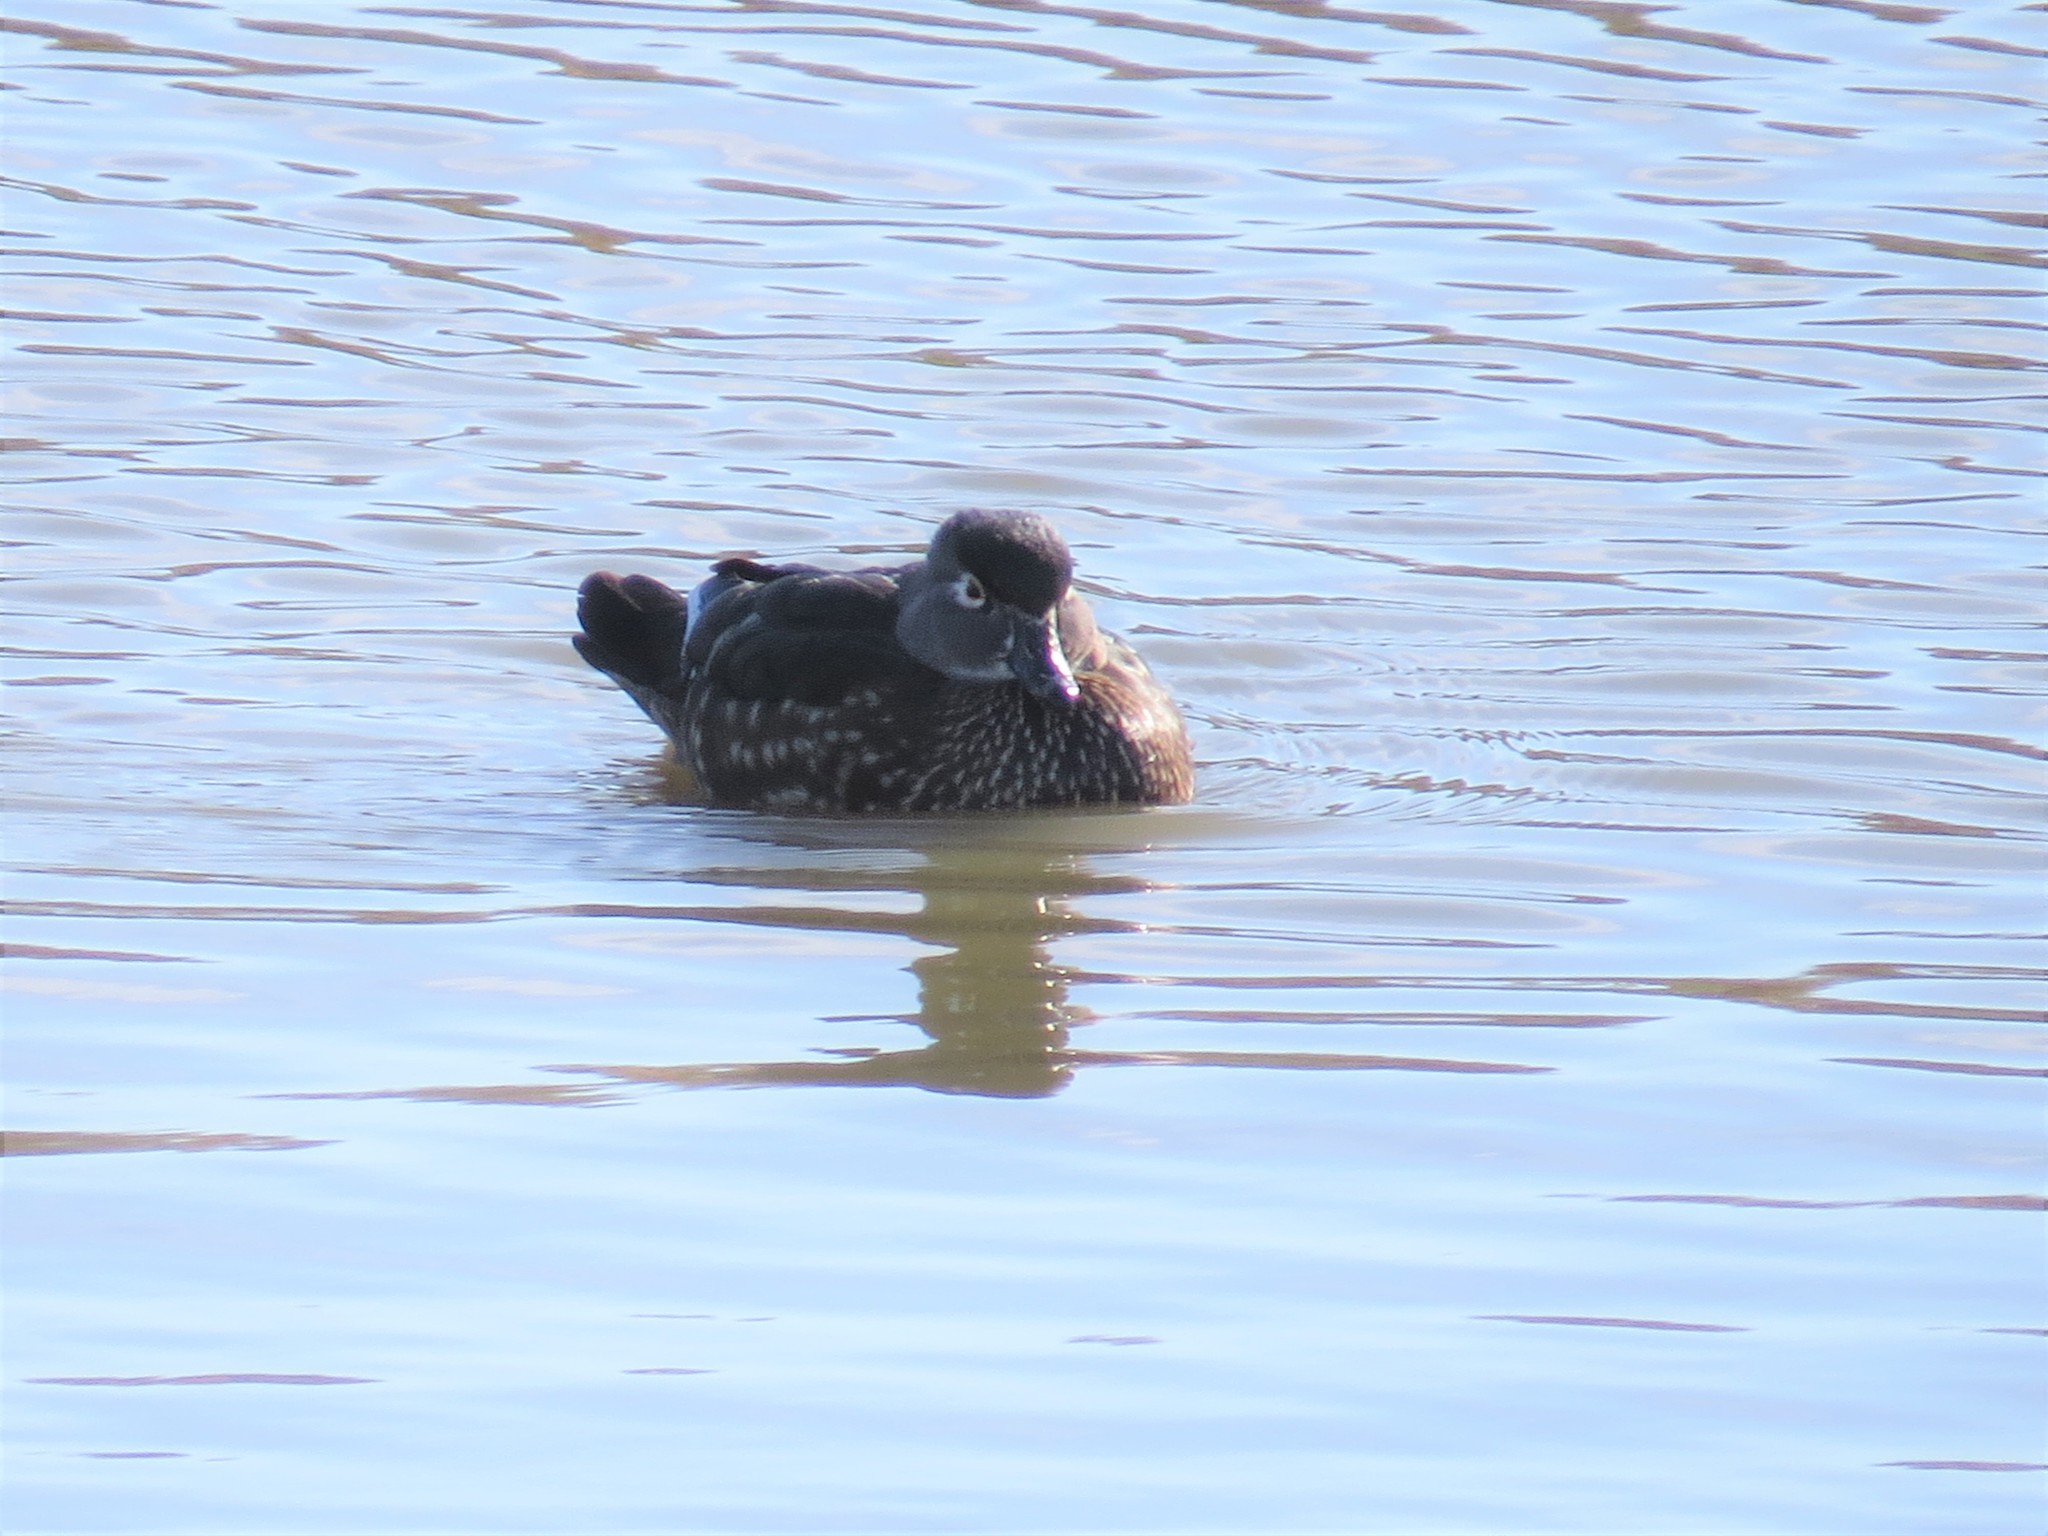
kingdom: Animalia
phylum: Chordata
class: Aves
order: Anseriformes
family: Anatidae
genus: Aix
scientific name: Aix sponsa
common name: Wood duck
